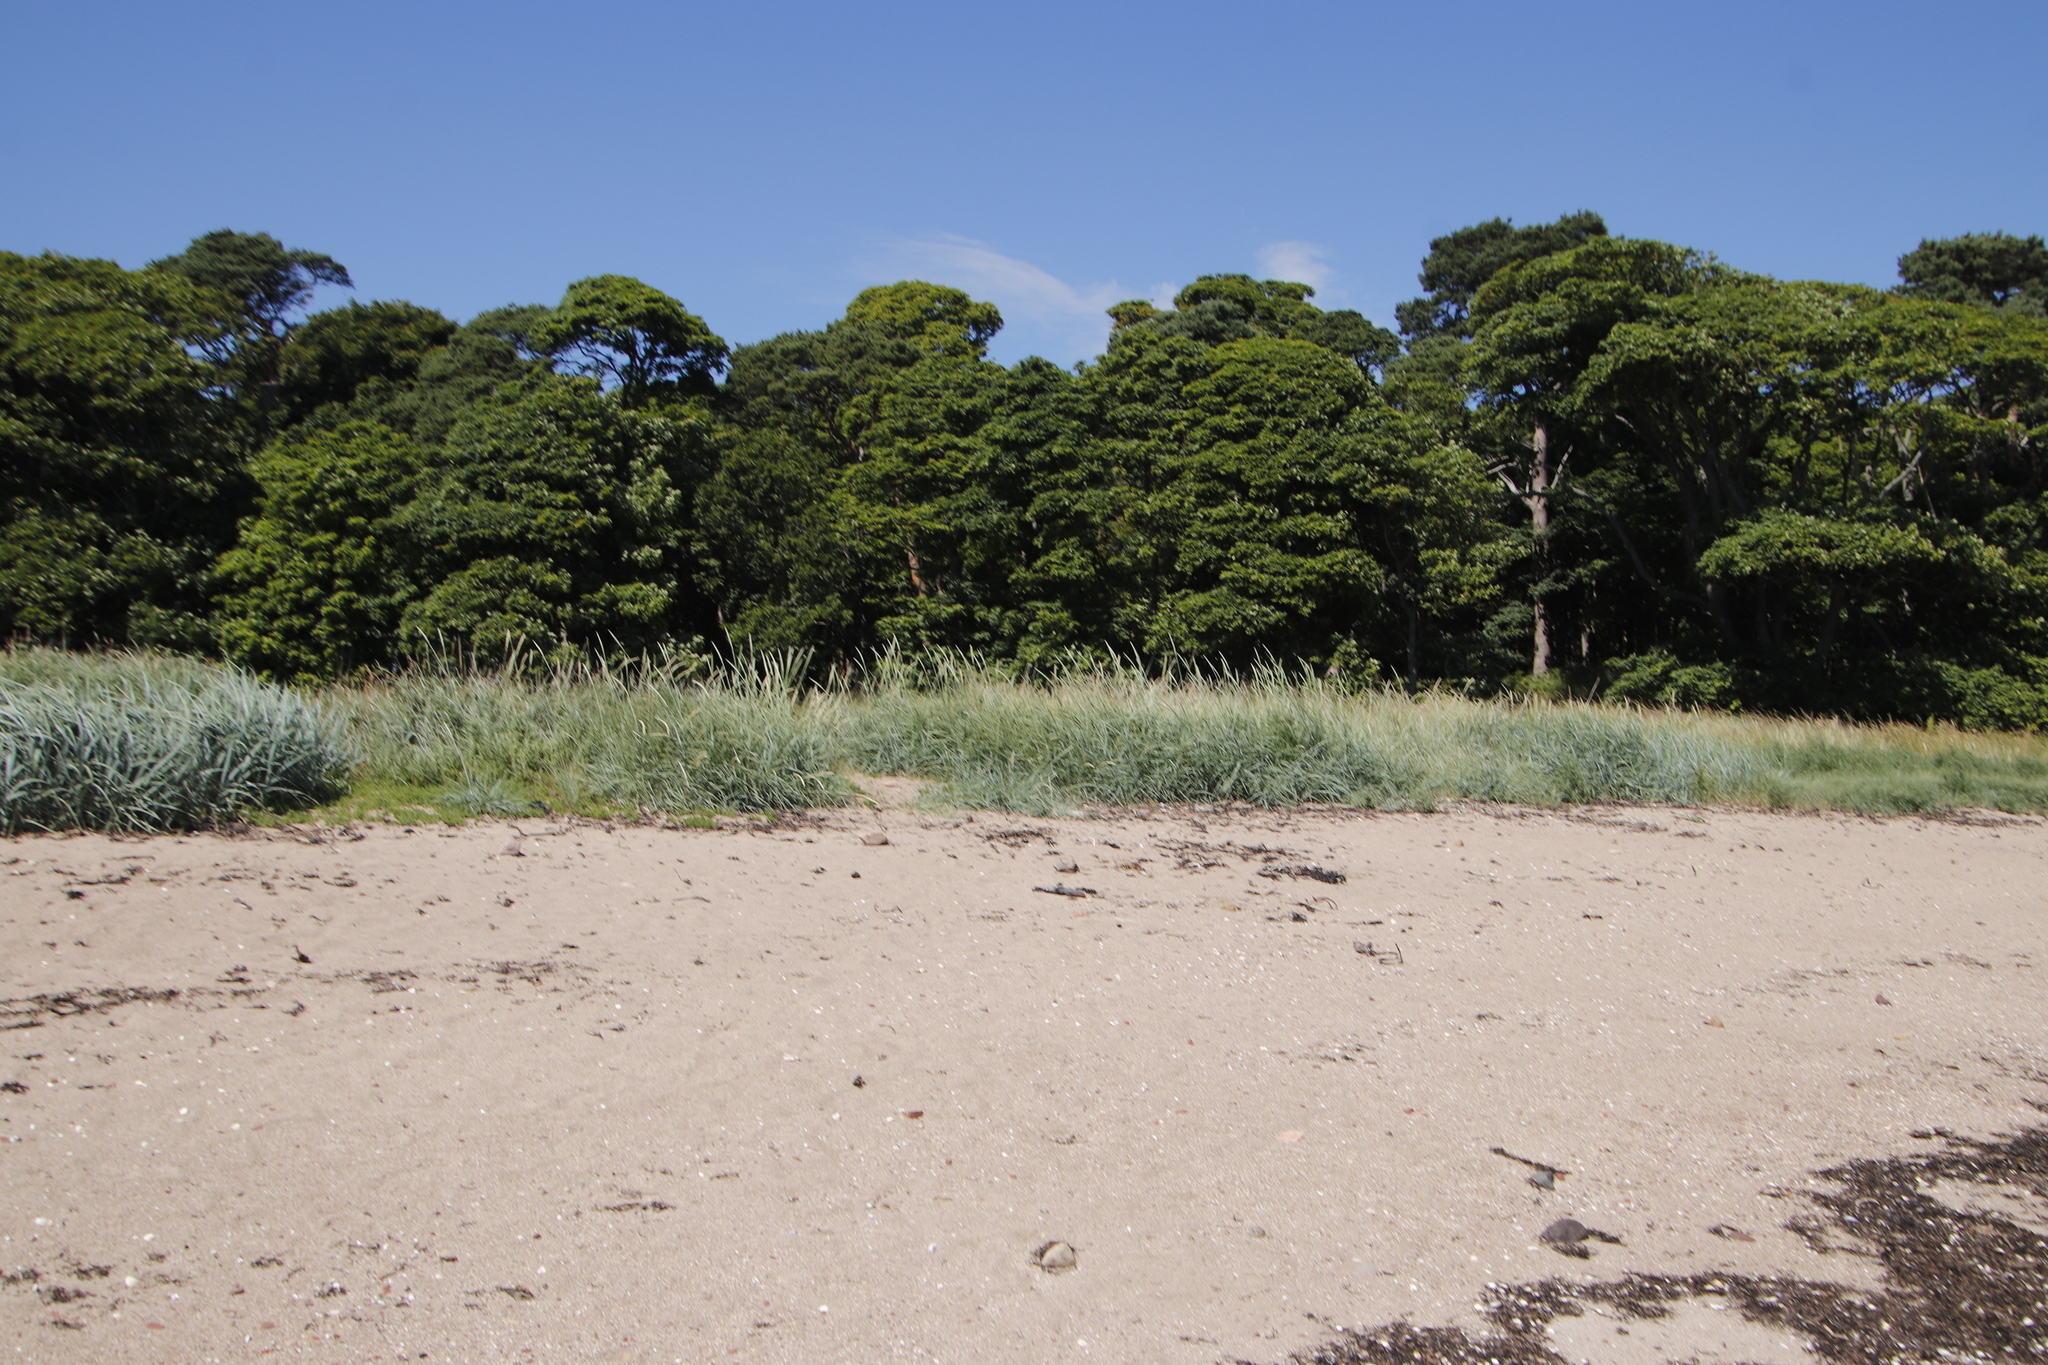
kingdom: Plantae
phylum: Tracheophyta
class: Liliopsida
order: Poales
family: Poaceae
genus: Elymus
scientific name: Elymus athericus
